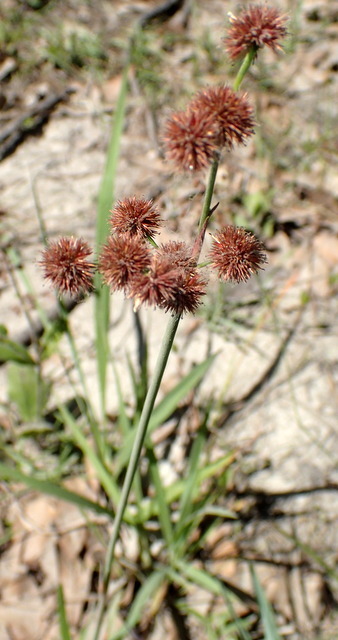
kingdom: Plantae
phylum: Tracheophyta
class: Liliopsida
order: Poales
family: Juncaceae
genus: Juncus
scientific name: Juncus megacephalus
